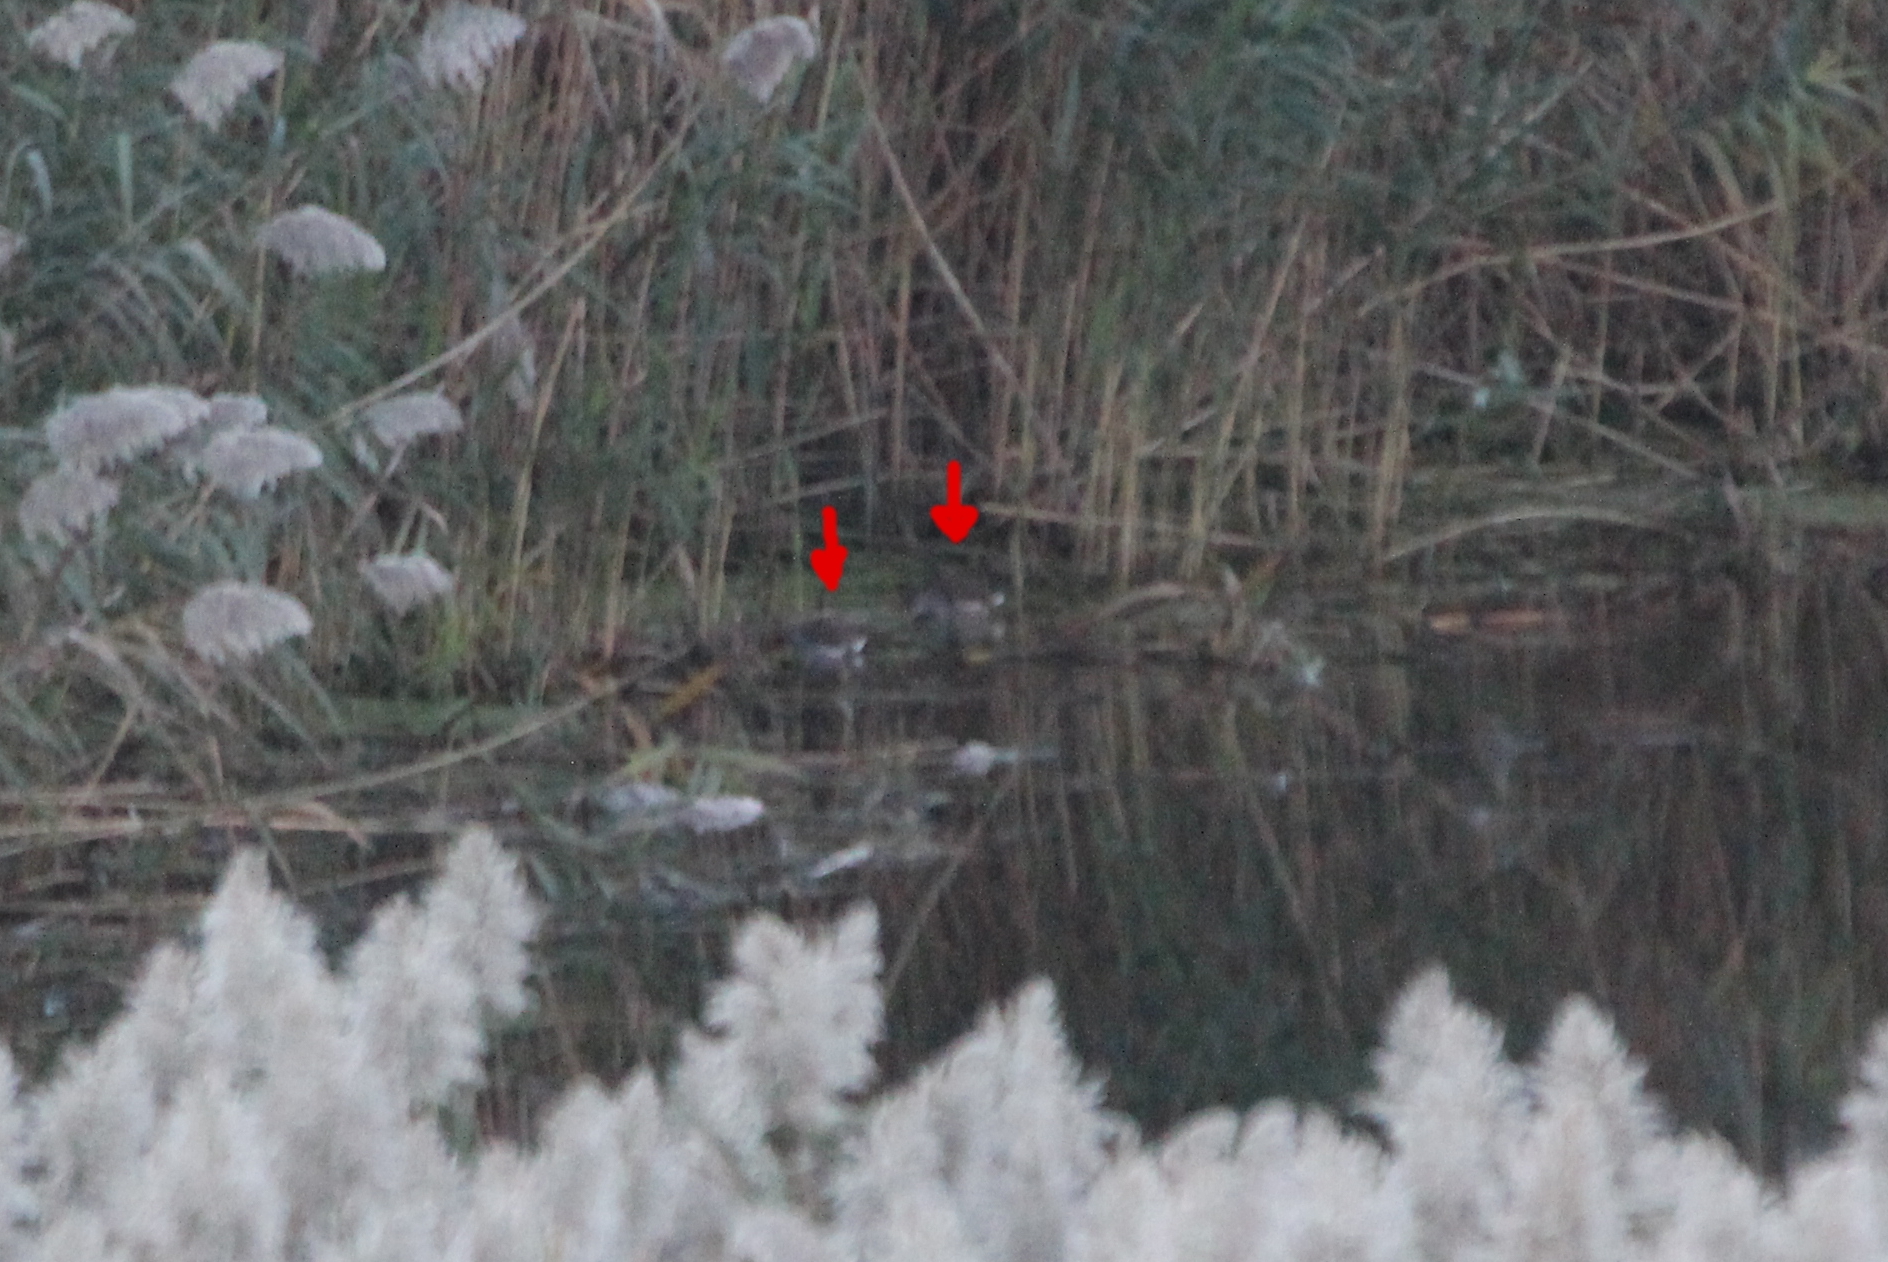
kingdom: Animalia
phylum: Chordata
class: Aves
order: Gruiformes
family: Rallidae
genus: Gallinula
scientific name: Gallinula chloropus
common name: Common moorhen
